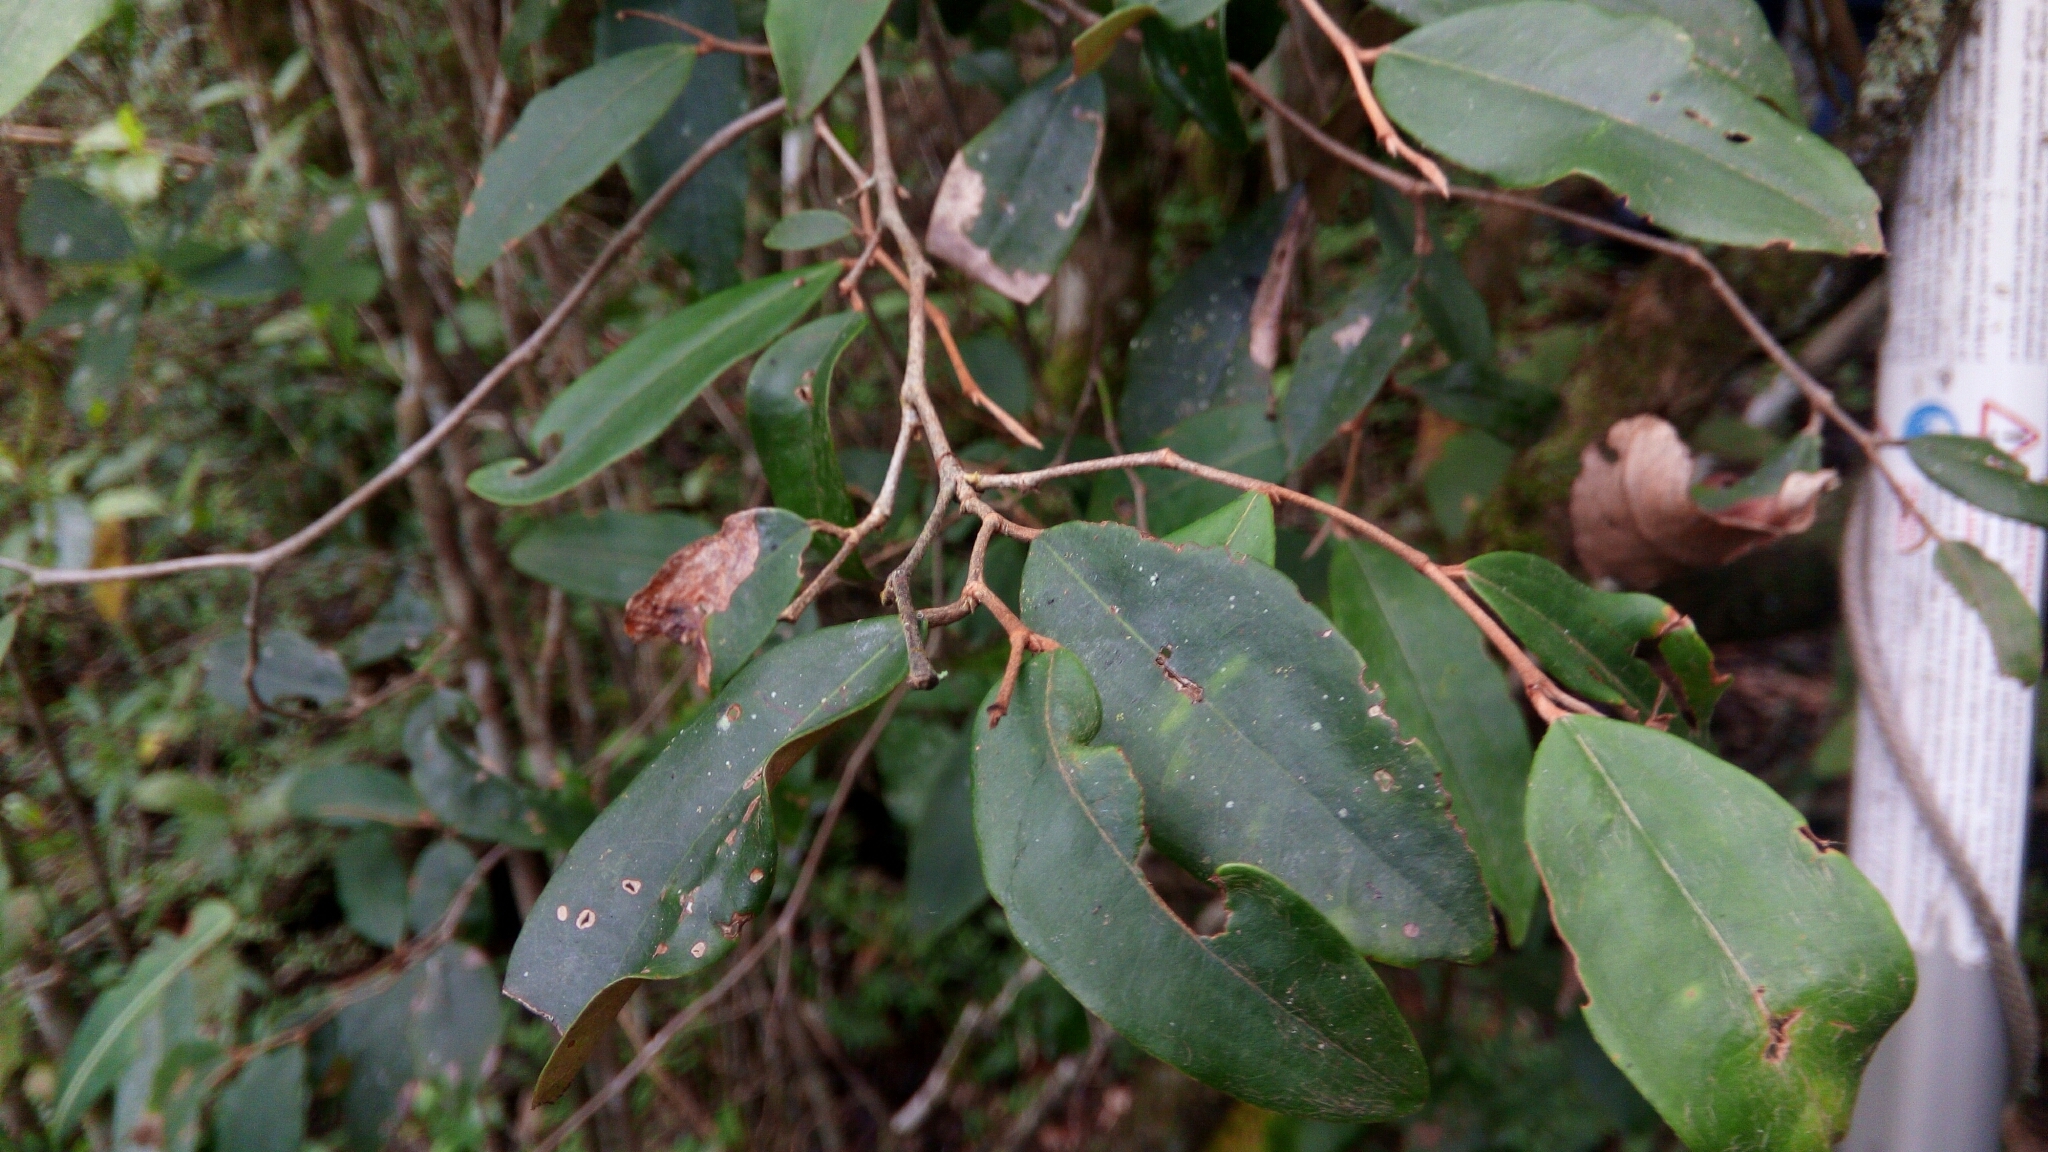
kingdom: Plantae
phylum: Tracheophyta
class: Magnoliopsida
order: Malvales
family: Sarcolaenaceae
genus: Sarcolaena
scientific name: Sarcolaena oblongifolia
